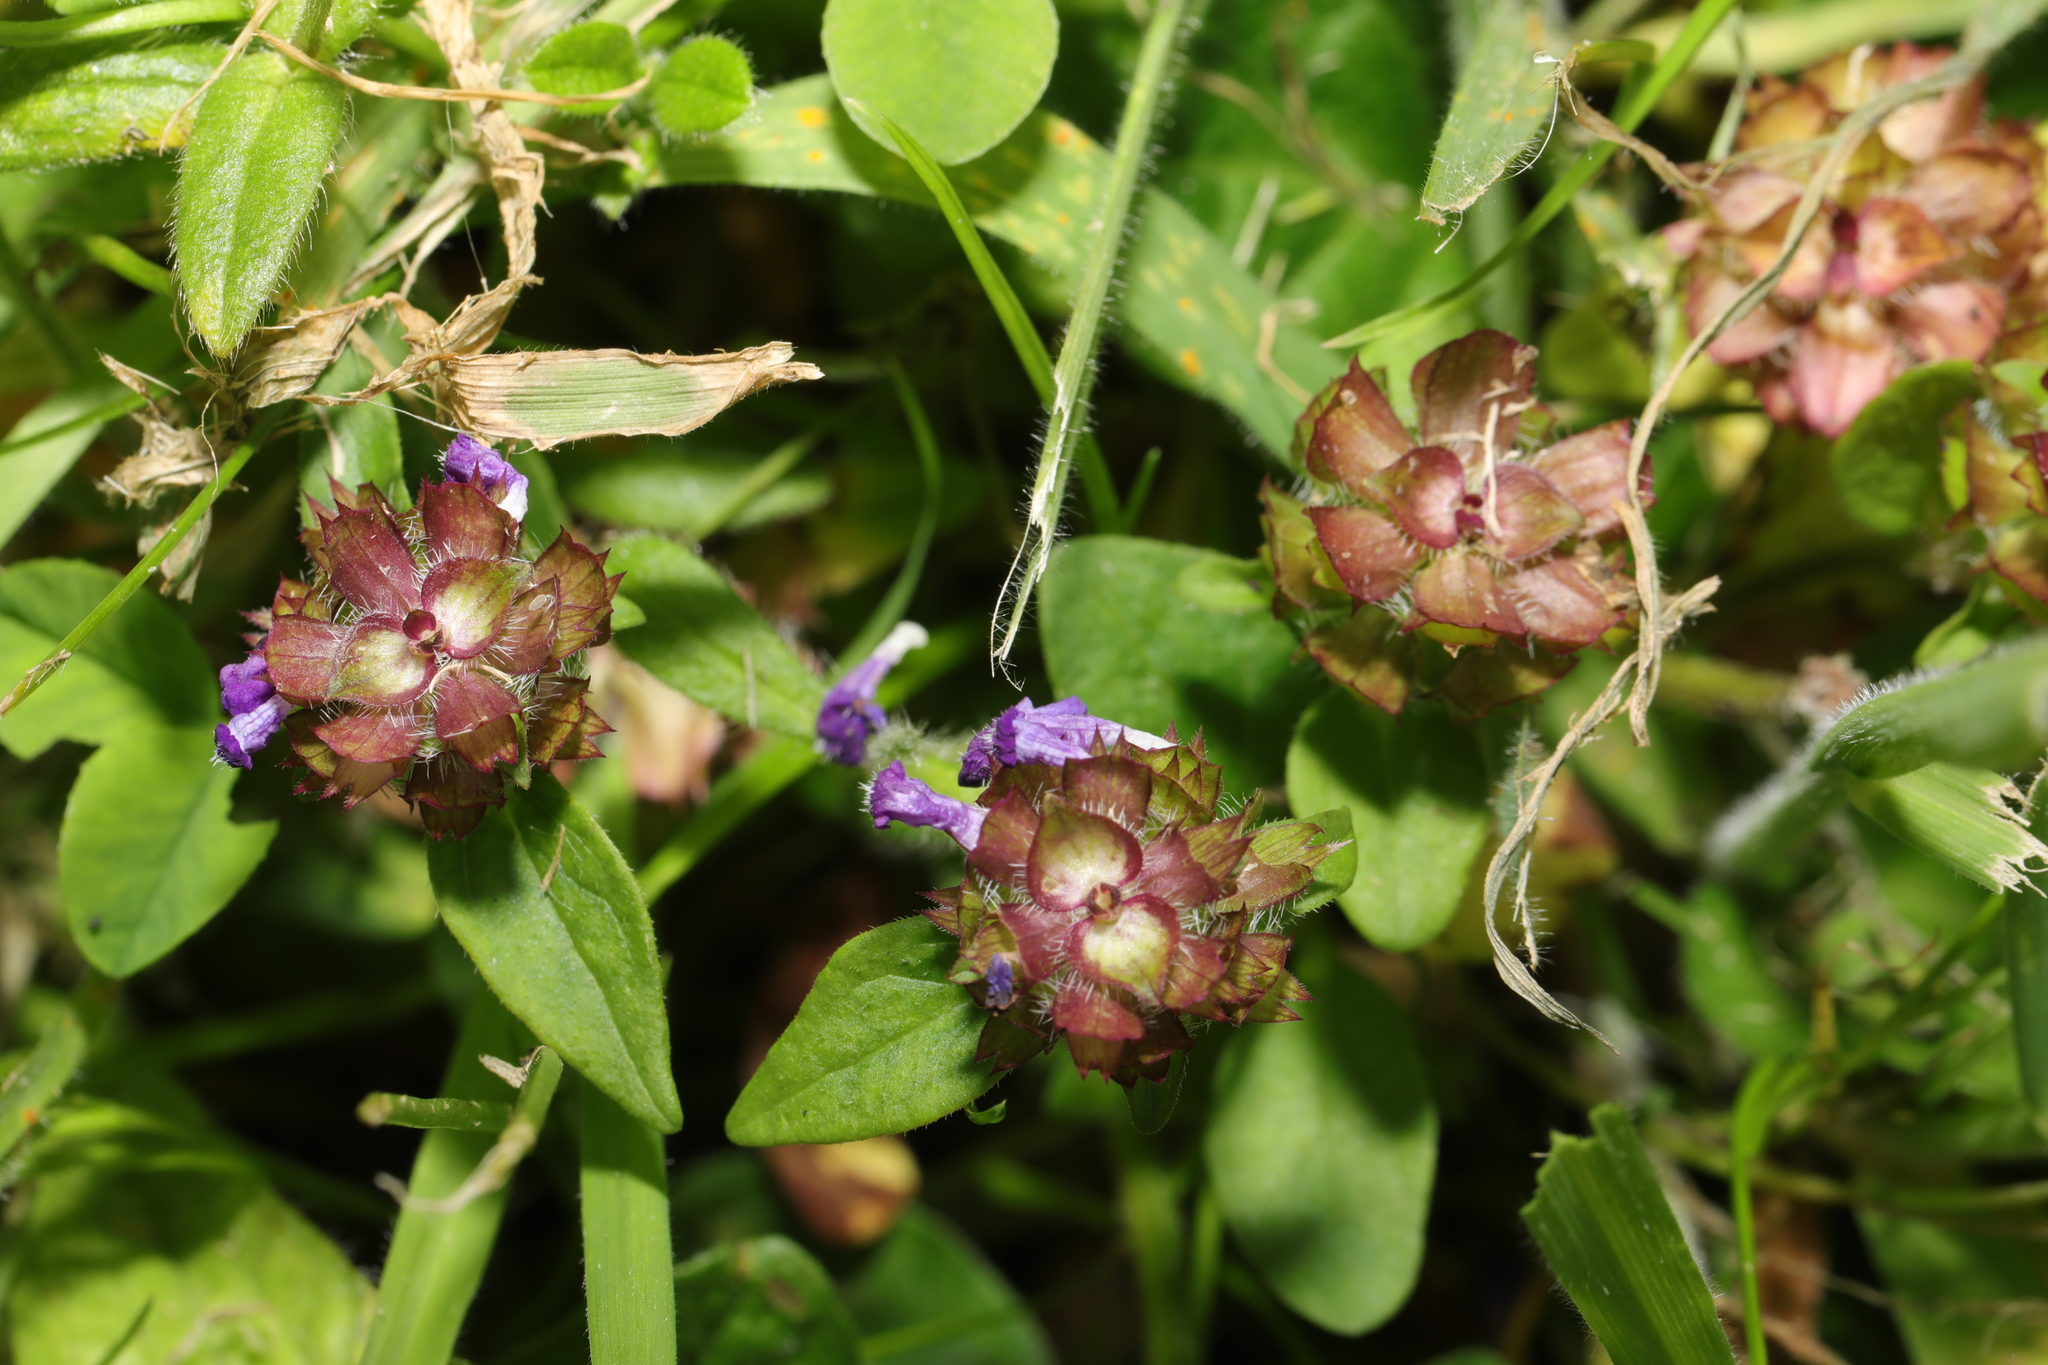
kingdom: Plantae
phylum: Tracheophyta
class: Magnoliopsida
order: Lamiales
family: Lamiaceae
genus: Prunella
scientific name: Prunella vulgaris
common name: Heal-all
